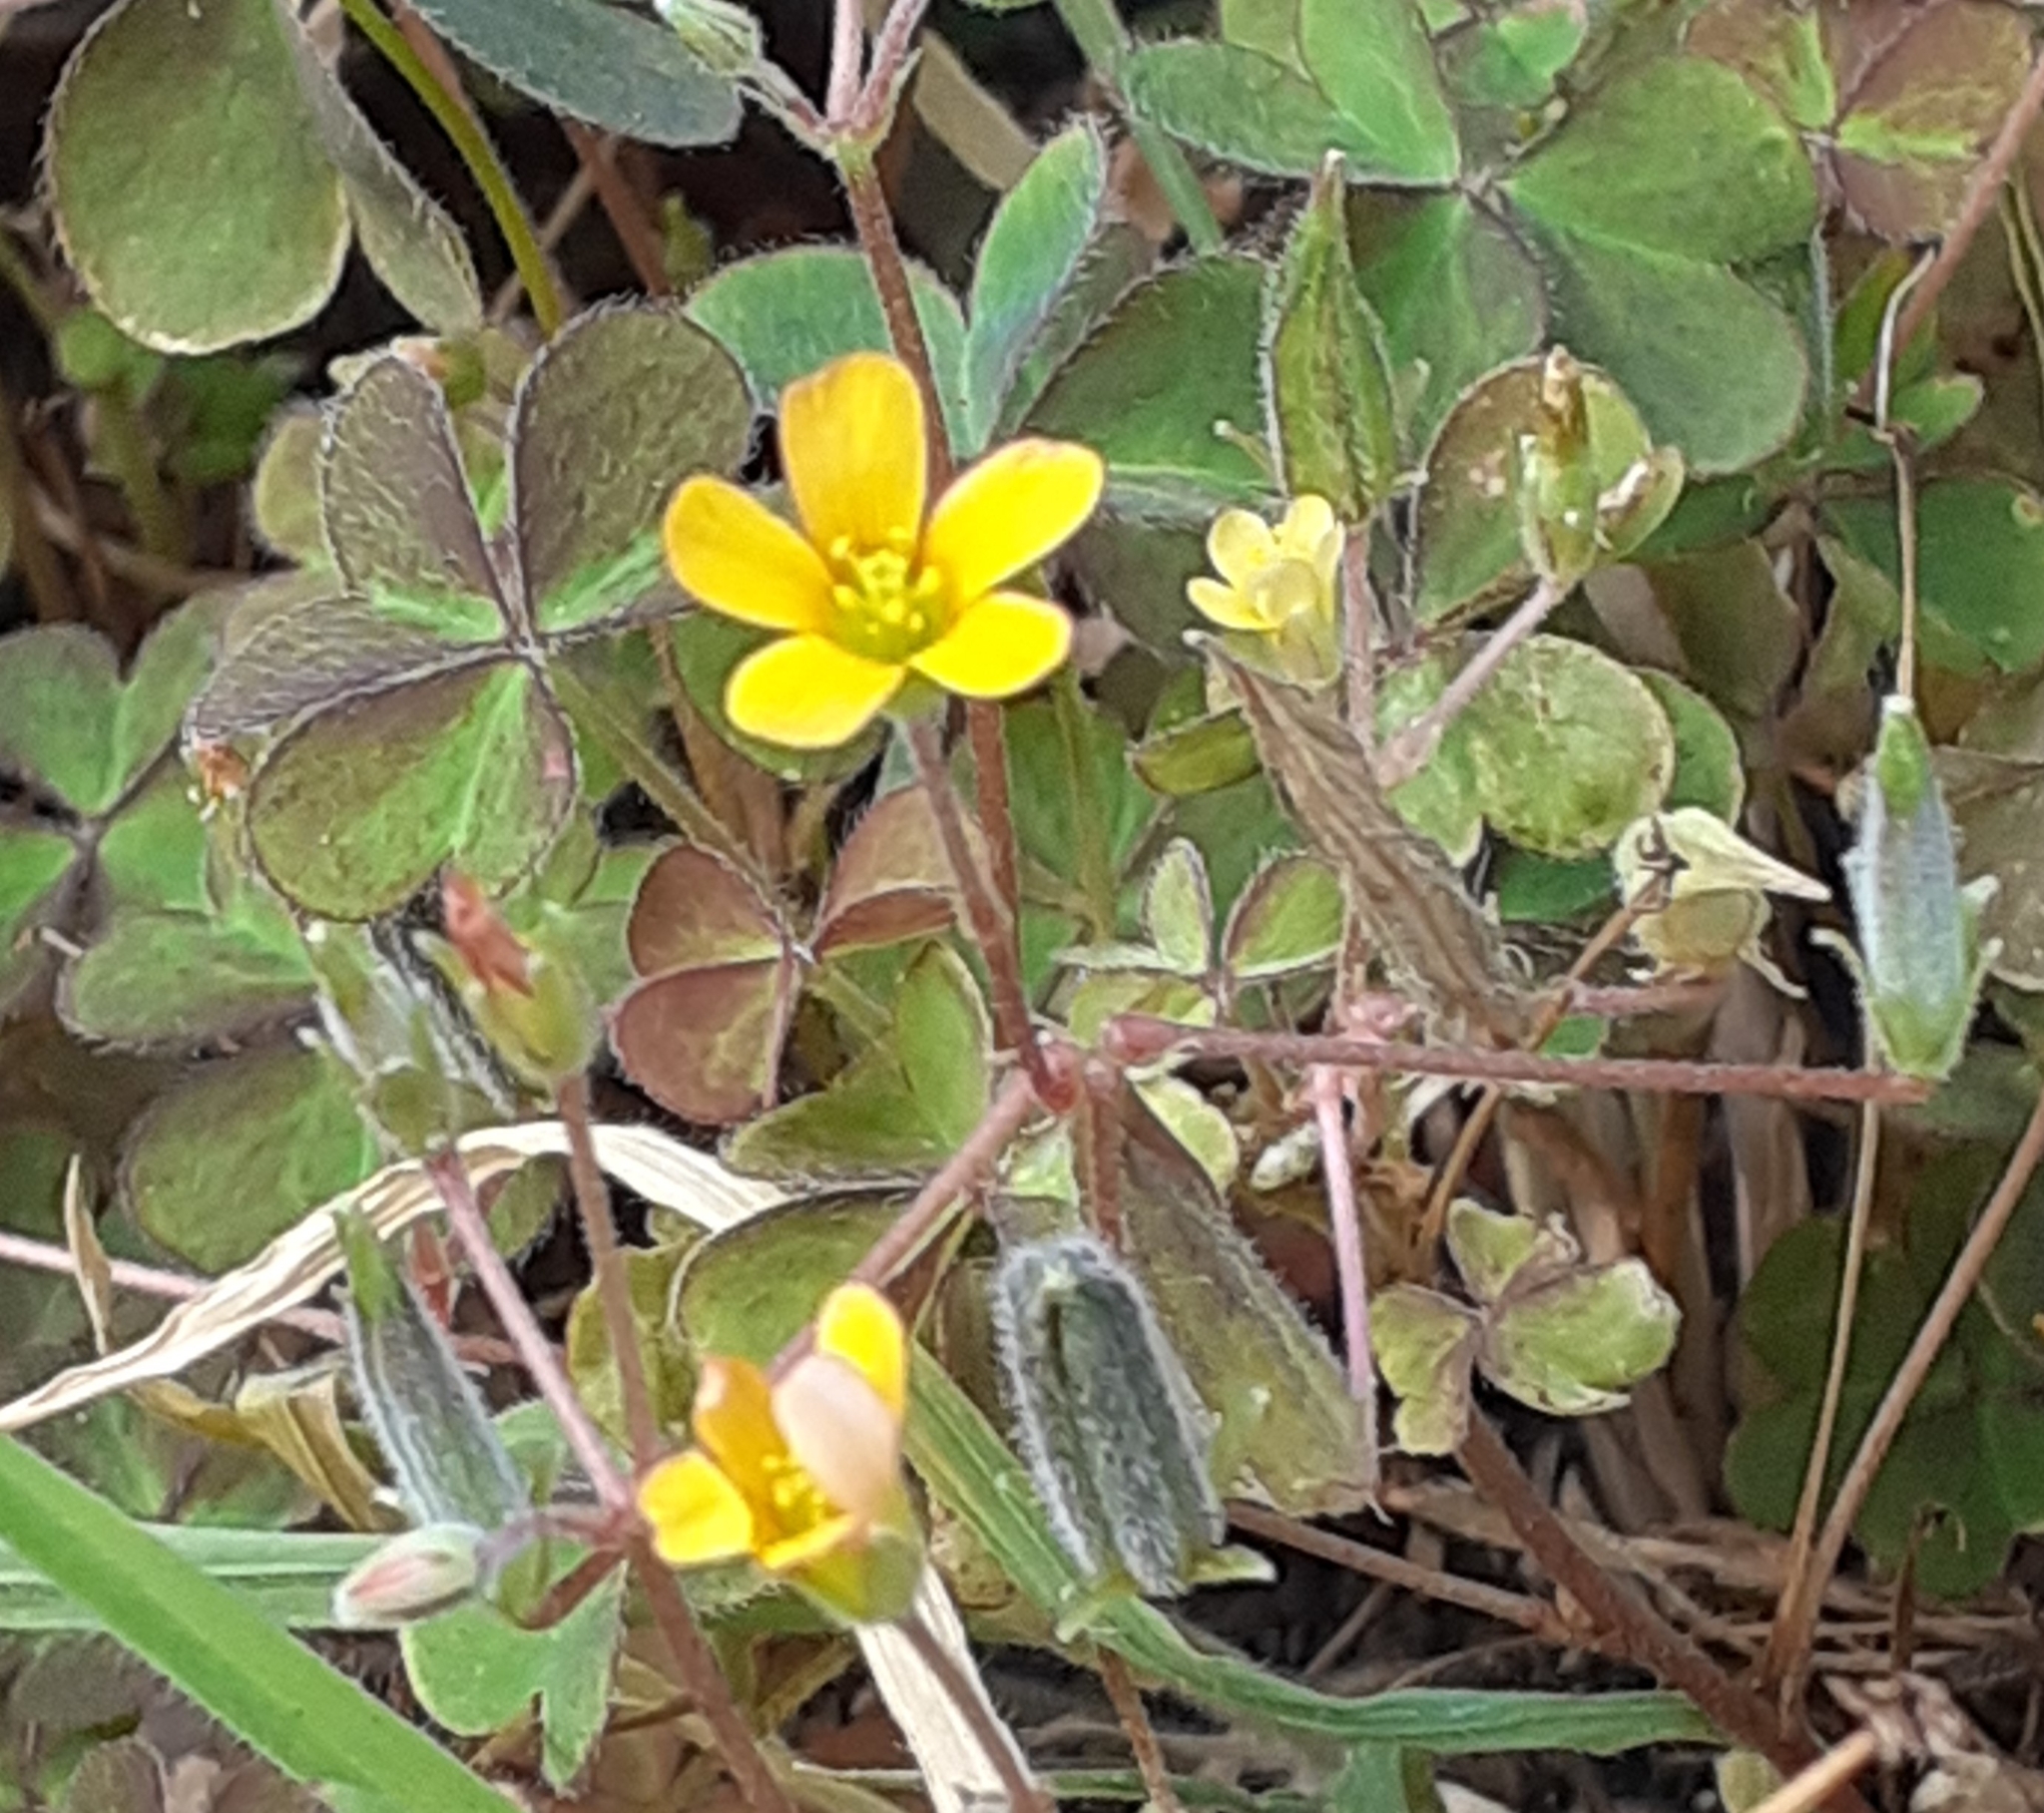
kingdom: Plantae
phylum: Tracheophyta
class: Magnoliopsida
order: Oxalidales
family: Oxalidaceae
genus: Oxalis
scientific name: Oxalis corniculata
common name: Procumbent yellow-sorrel
